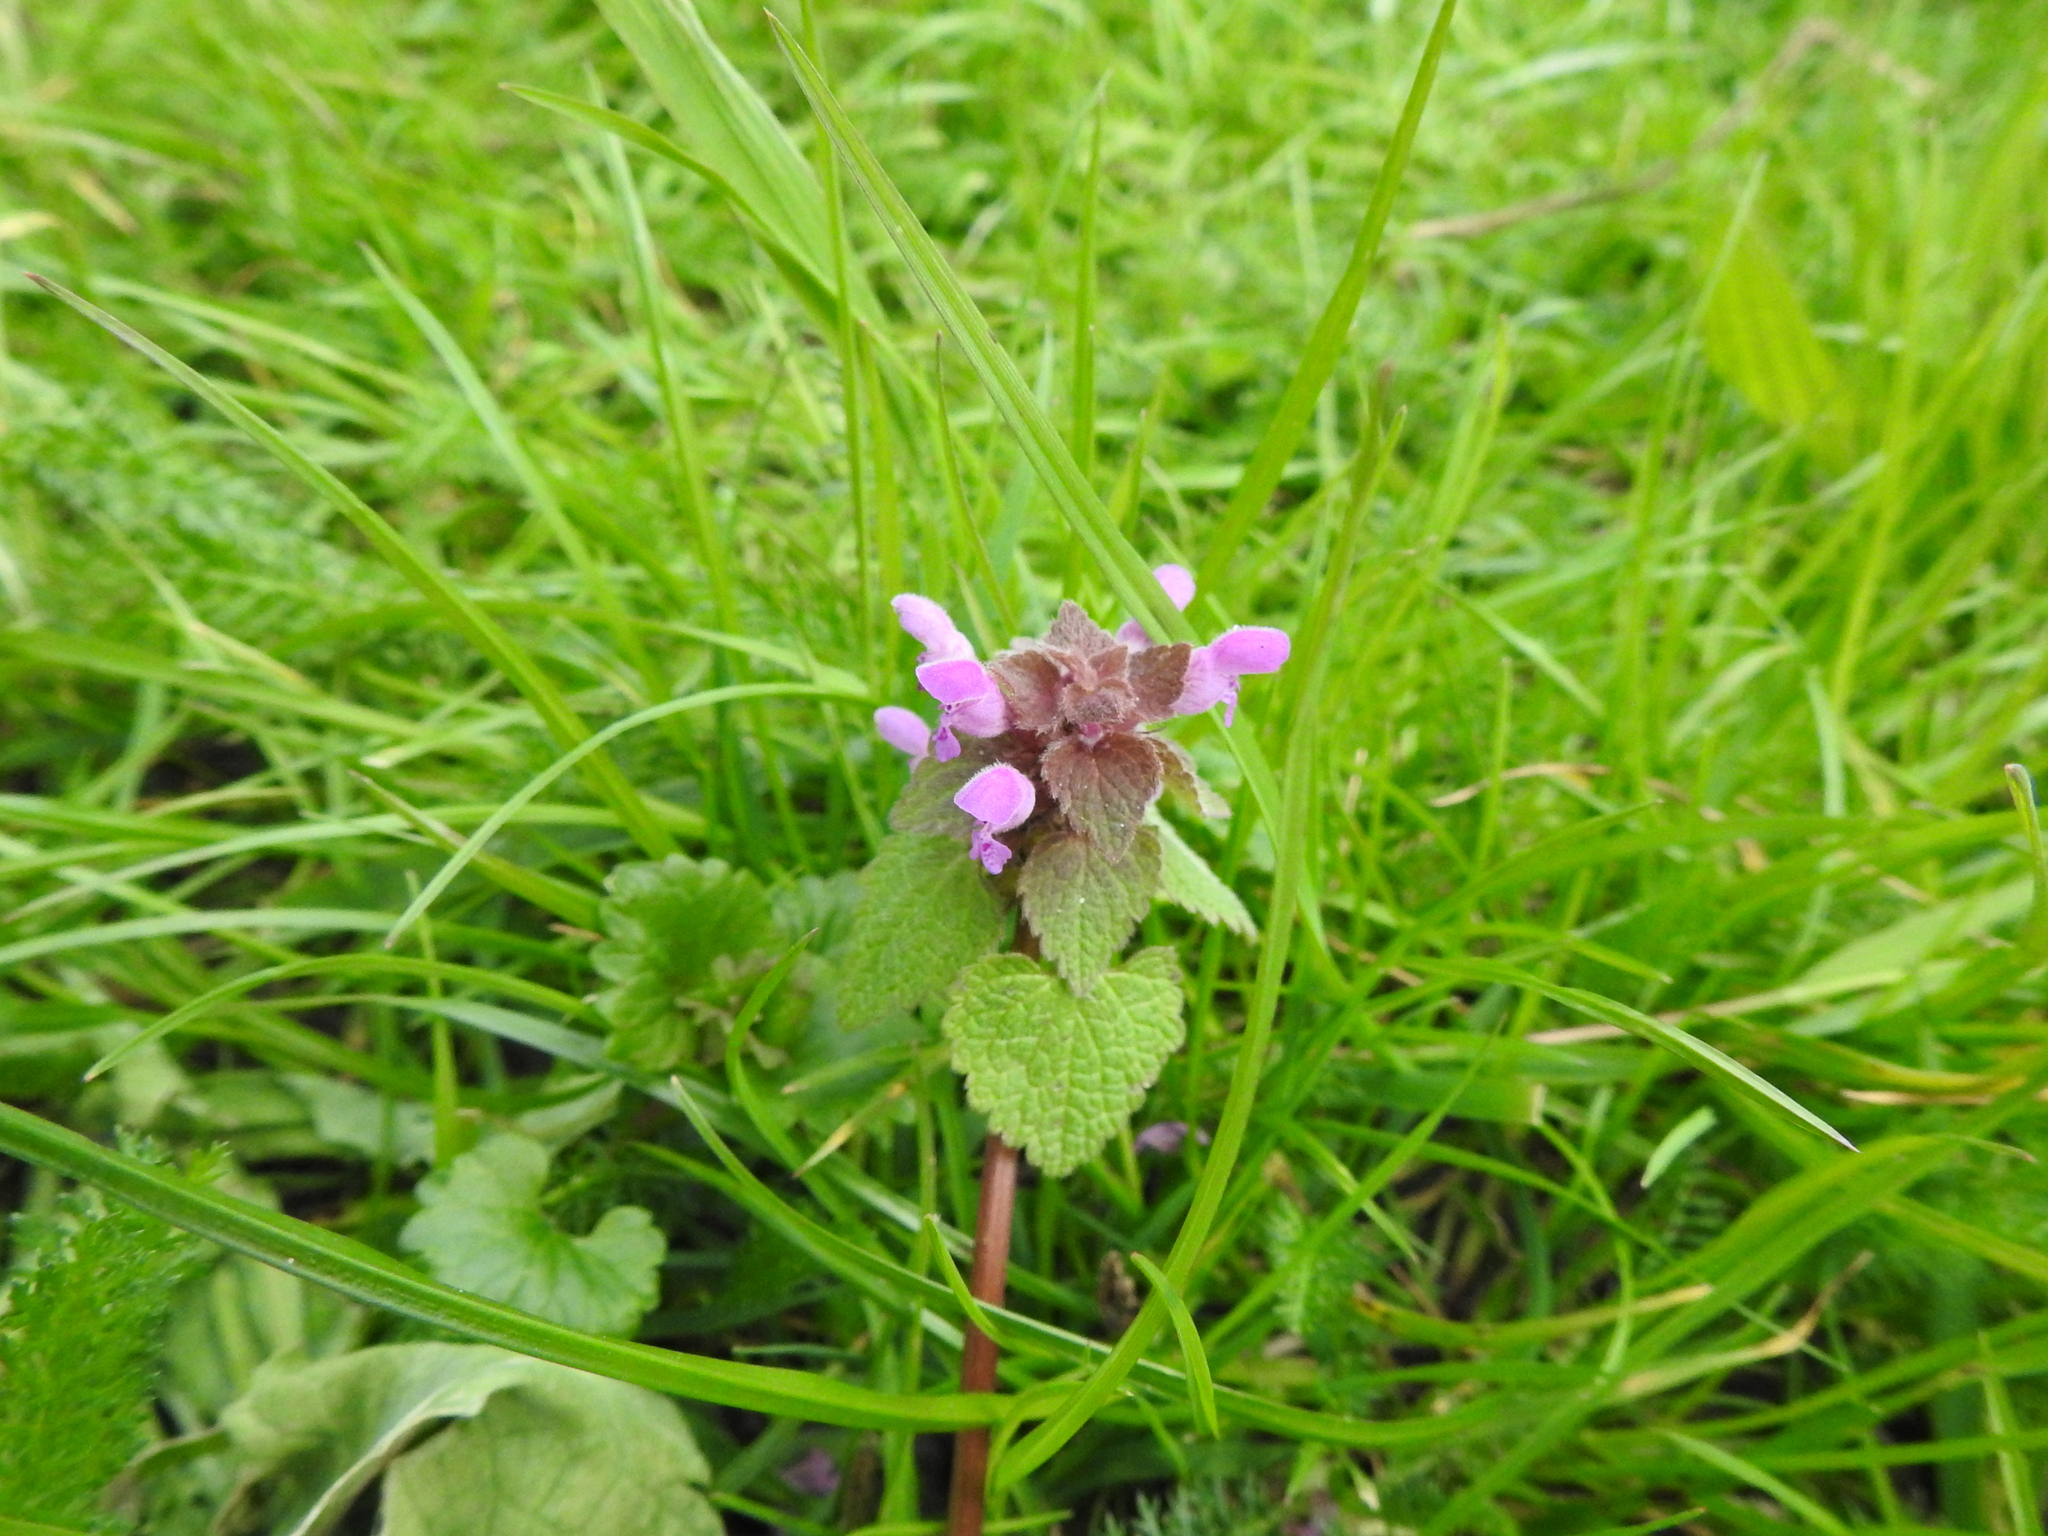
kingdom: Plantae
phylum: Tracheophyta
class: Magnoliopsida
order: Lamiales
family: Lamiaceae
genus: Lamium
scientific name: Lamium purpureum
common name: Red dead-nettle
